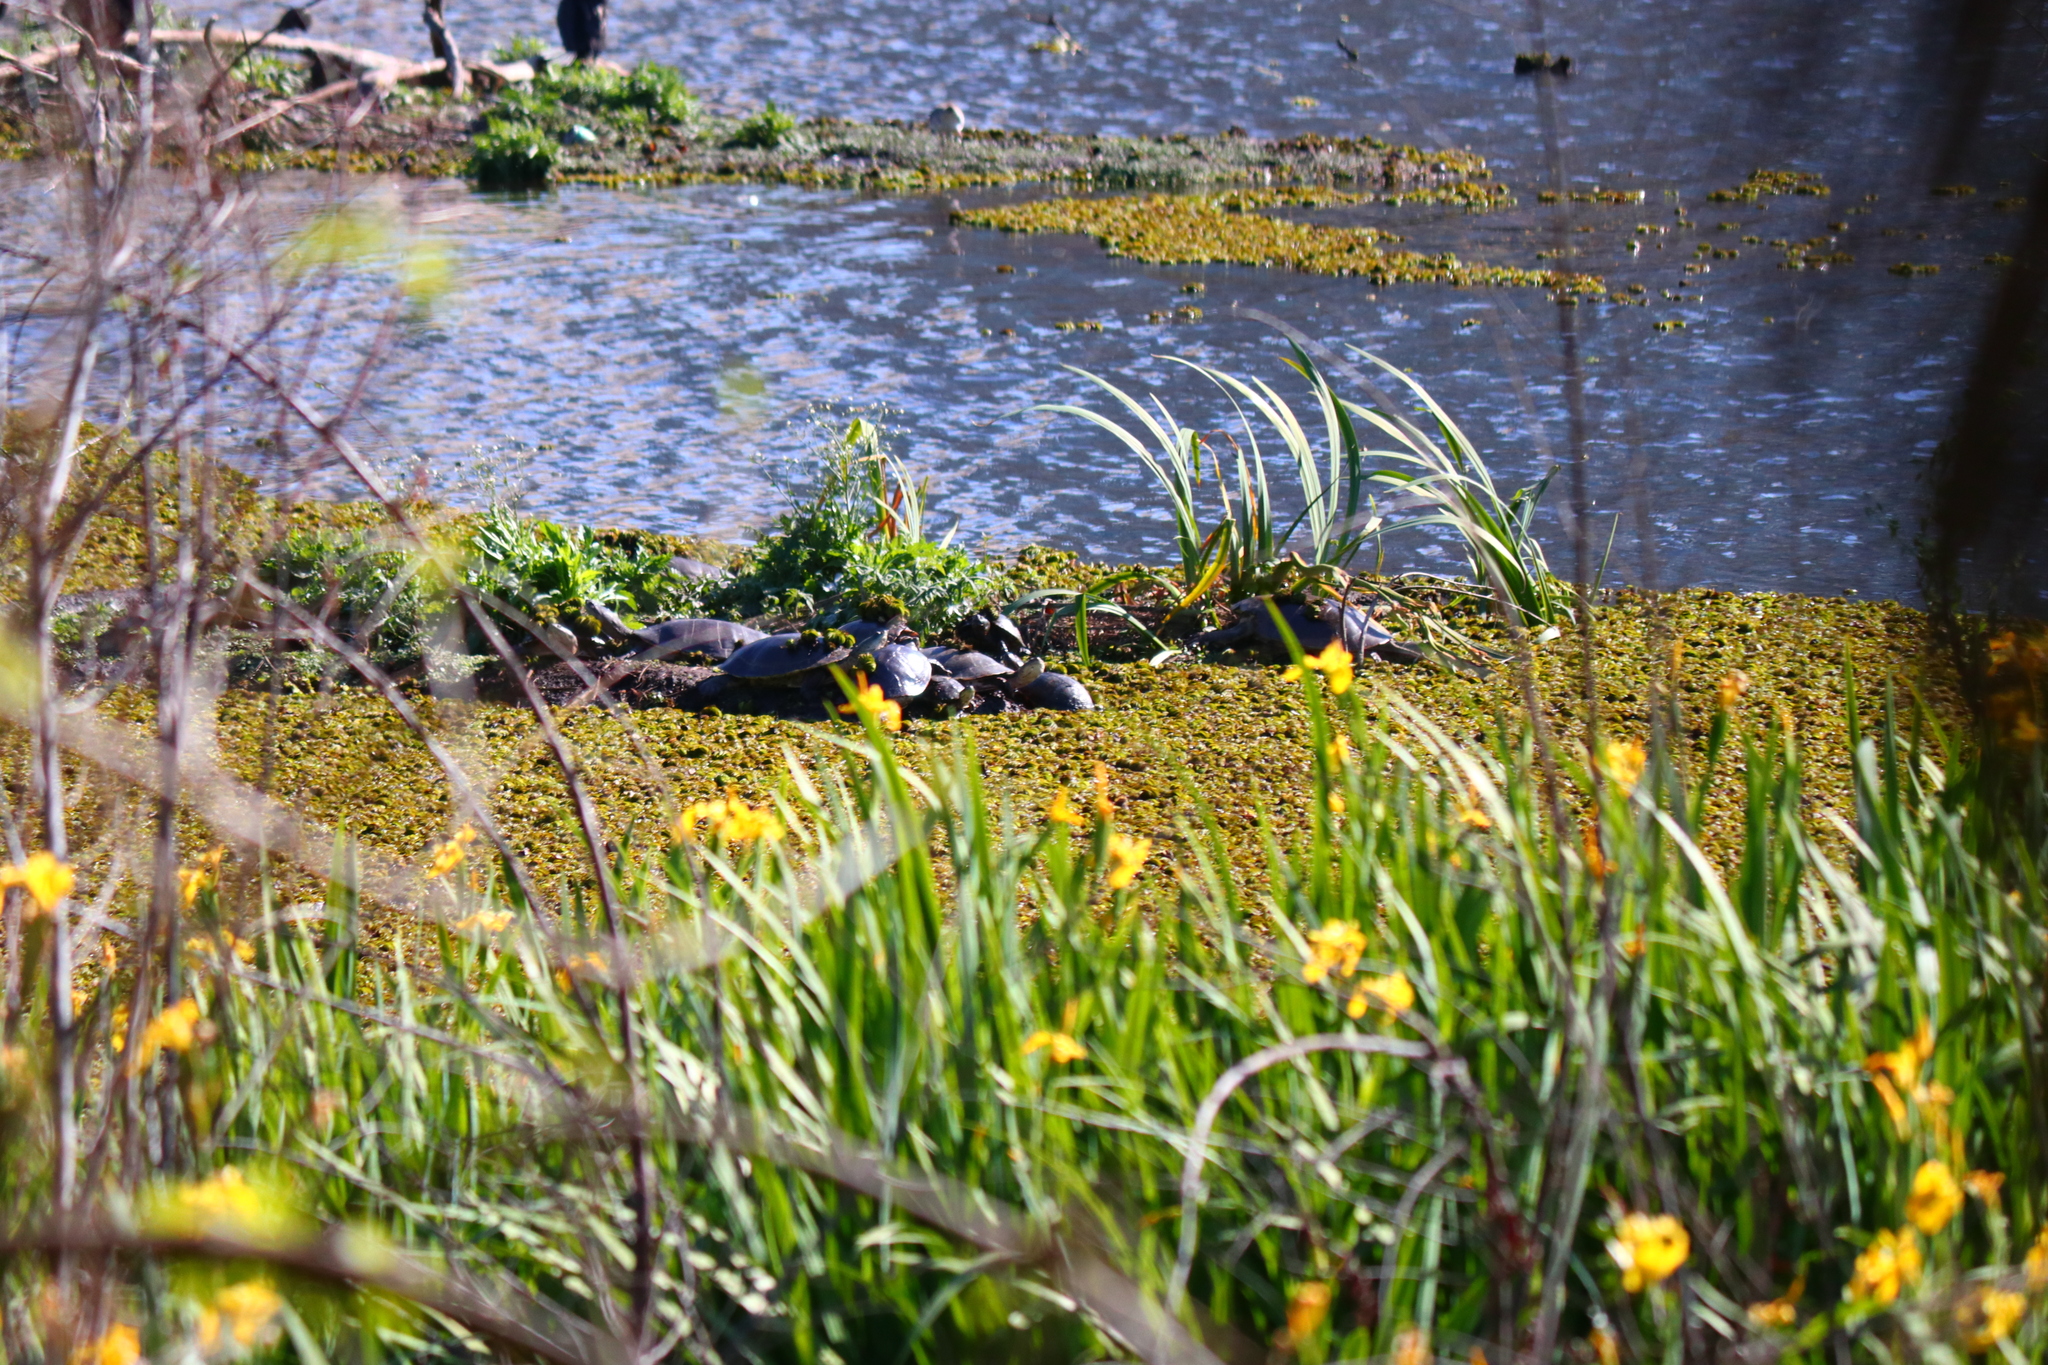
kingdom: Animalia
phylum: Chordata
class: Testudines
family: Chelidae
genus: Phrynops
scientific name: Phrynops hilarii
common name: Side-necked turtle of saint hillaire
